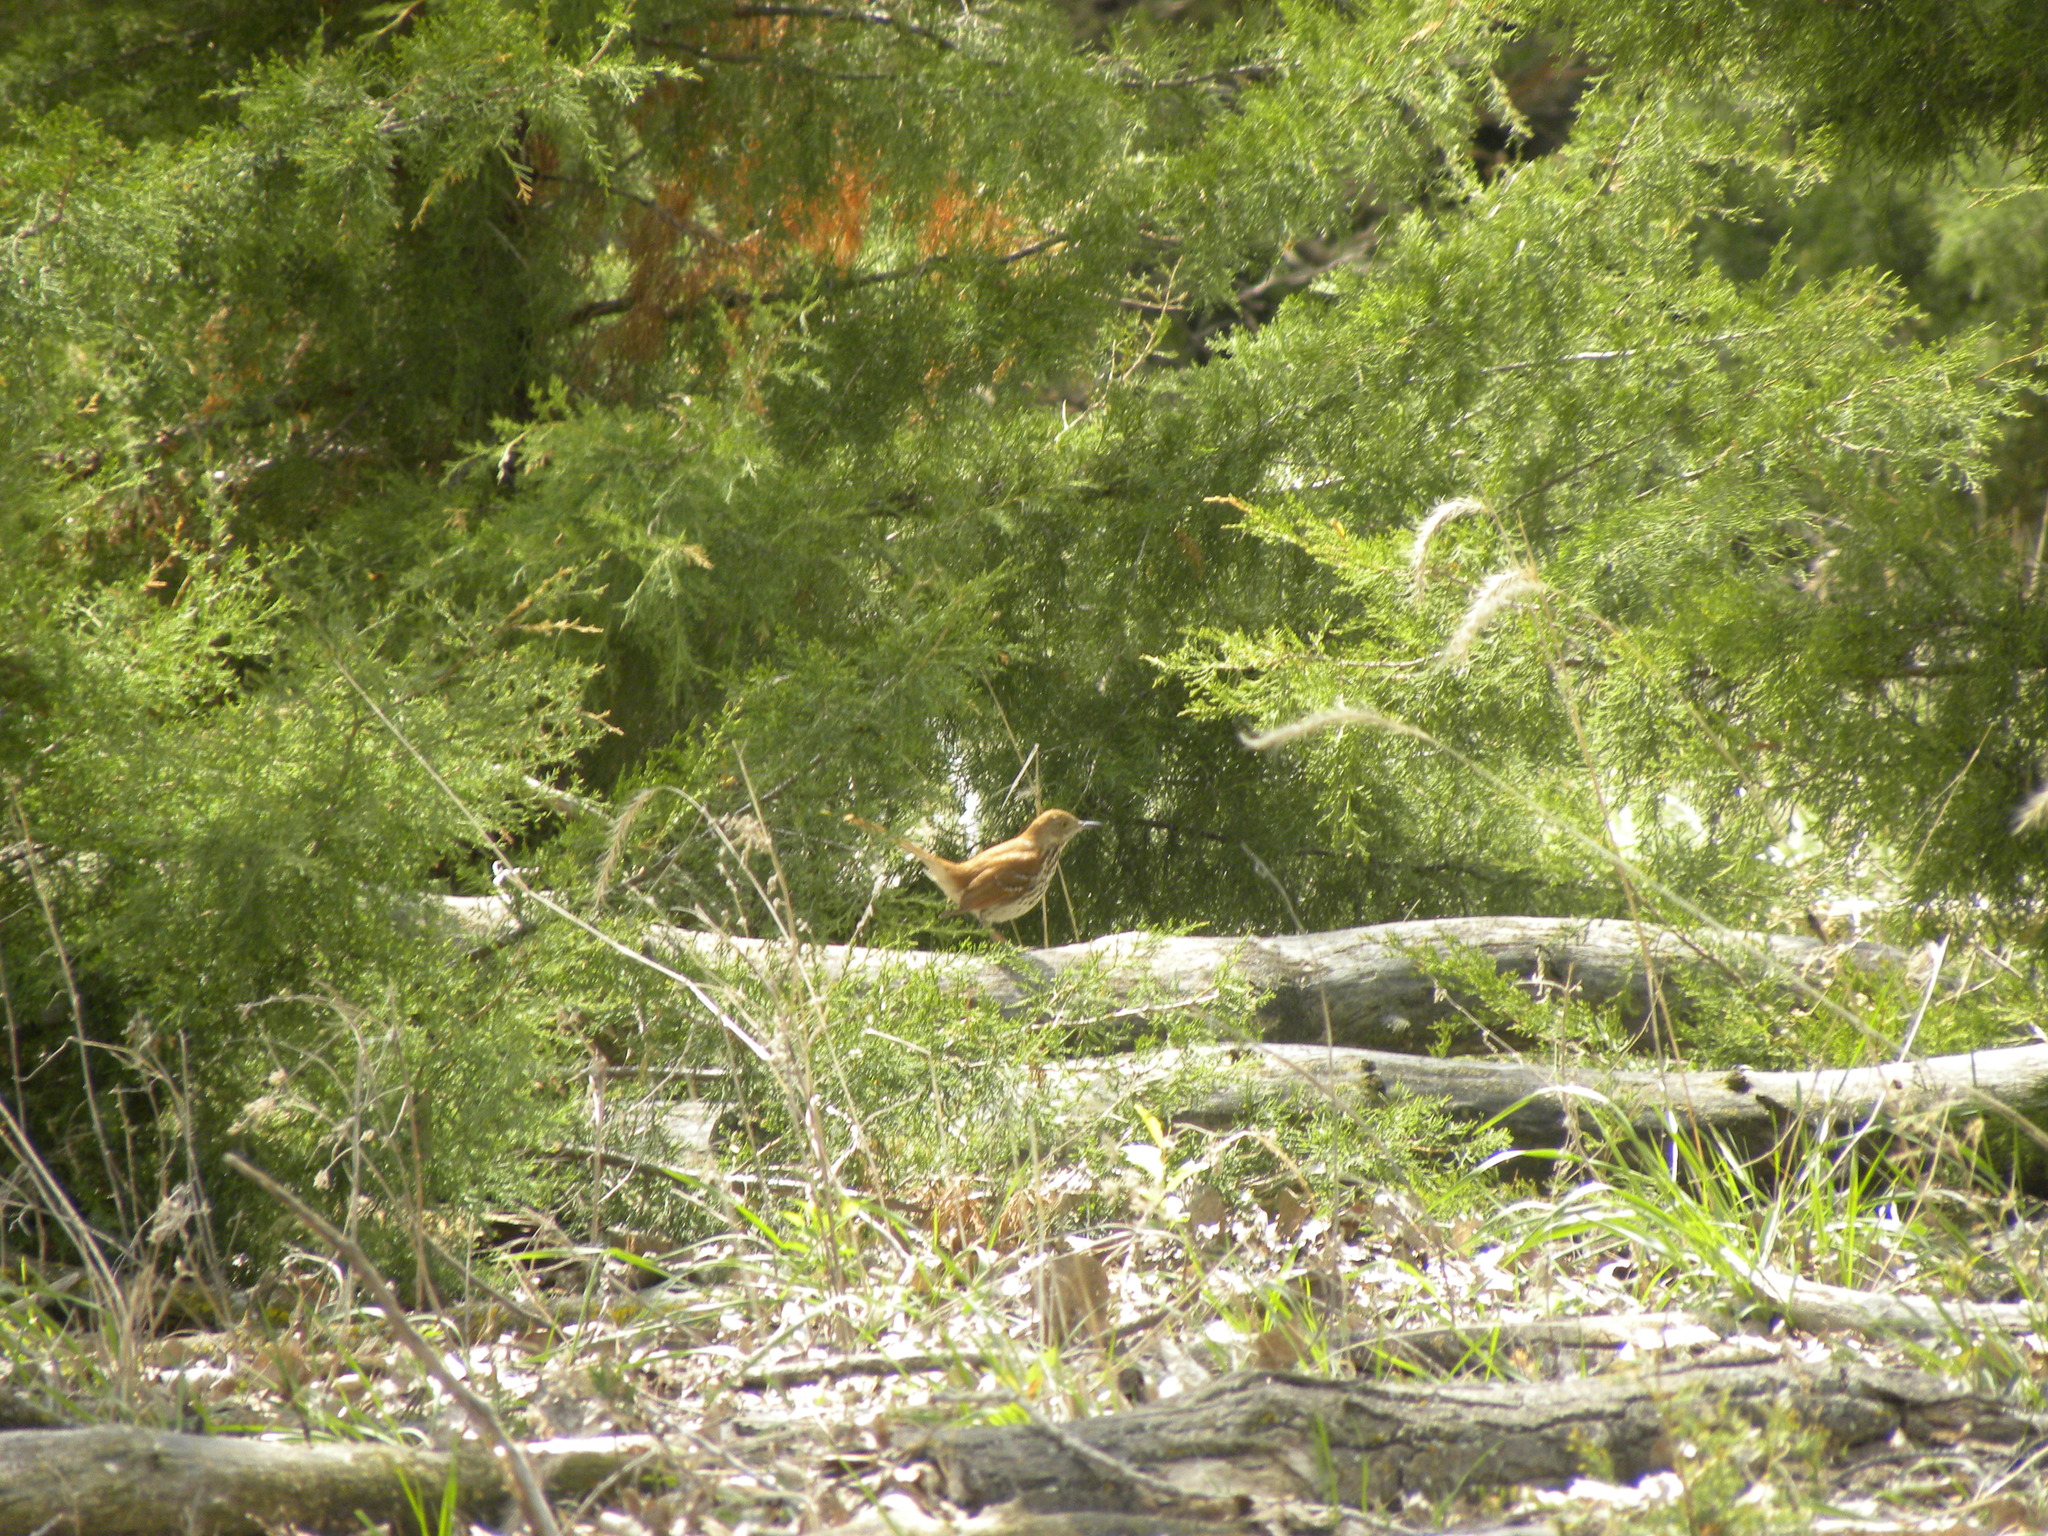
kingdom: Animalia
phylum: Chordata
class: Aves
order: Passeriformes
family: Mimidae
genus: Toxostoma
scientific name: Toxostoma rufum
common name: Brown thrasher
